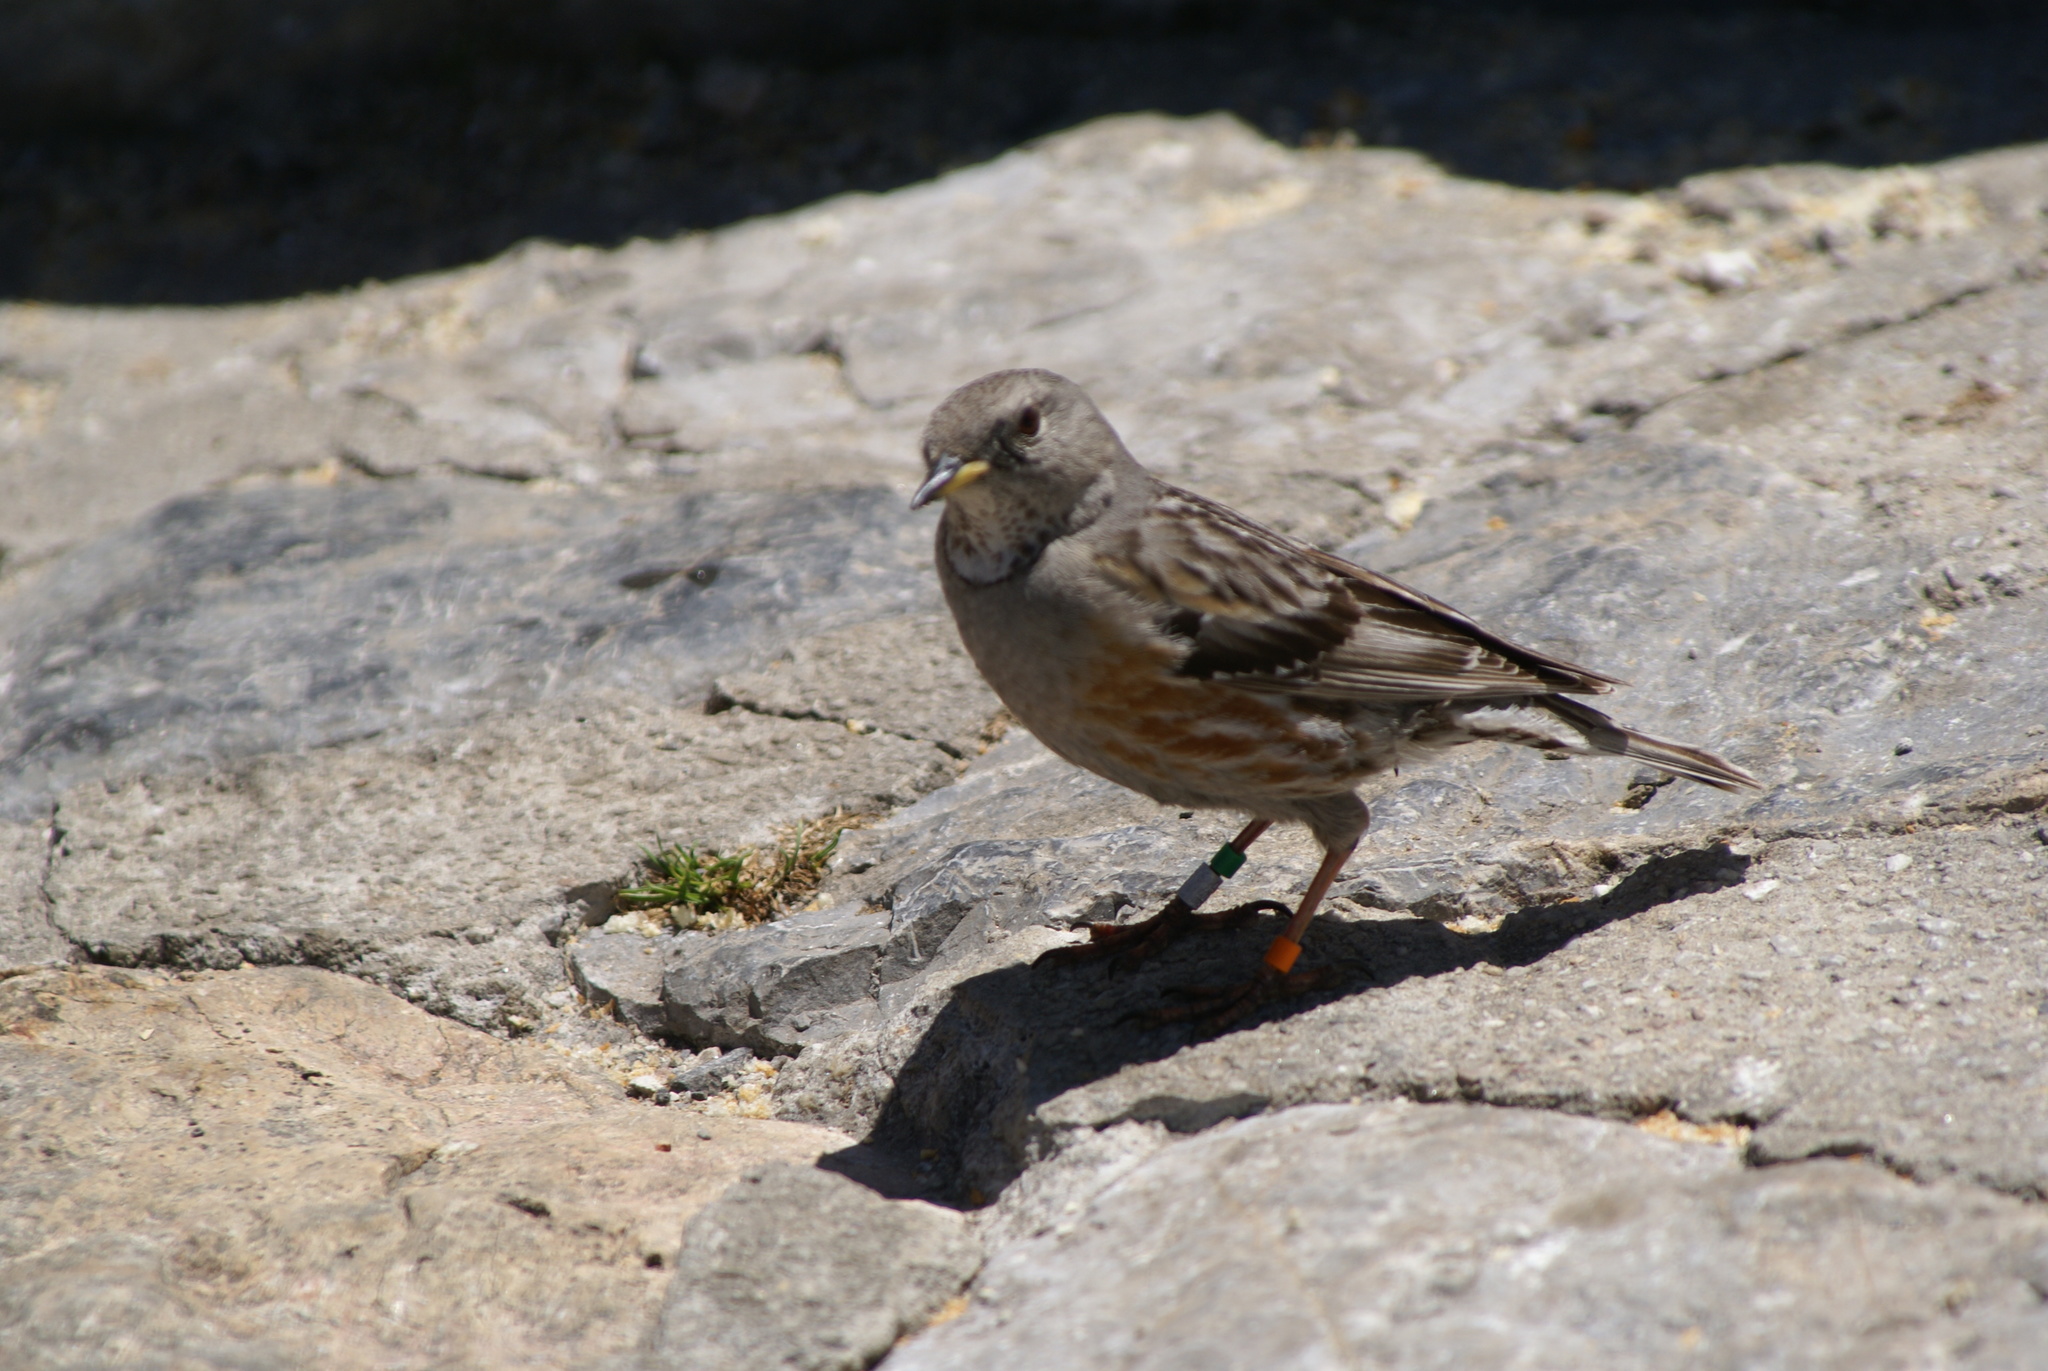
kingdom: Animalia
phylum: Chordata
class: Aves
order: Passeriformes
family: Prunellidae
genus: Prunella
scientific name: Prunella collaris
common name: Alpine accentor
